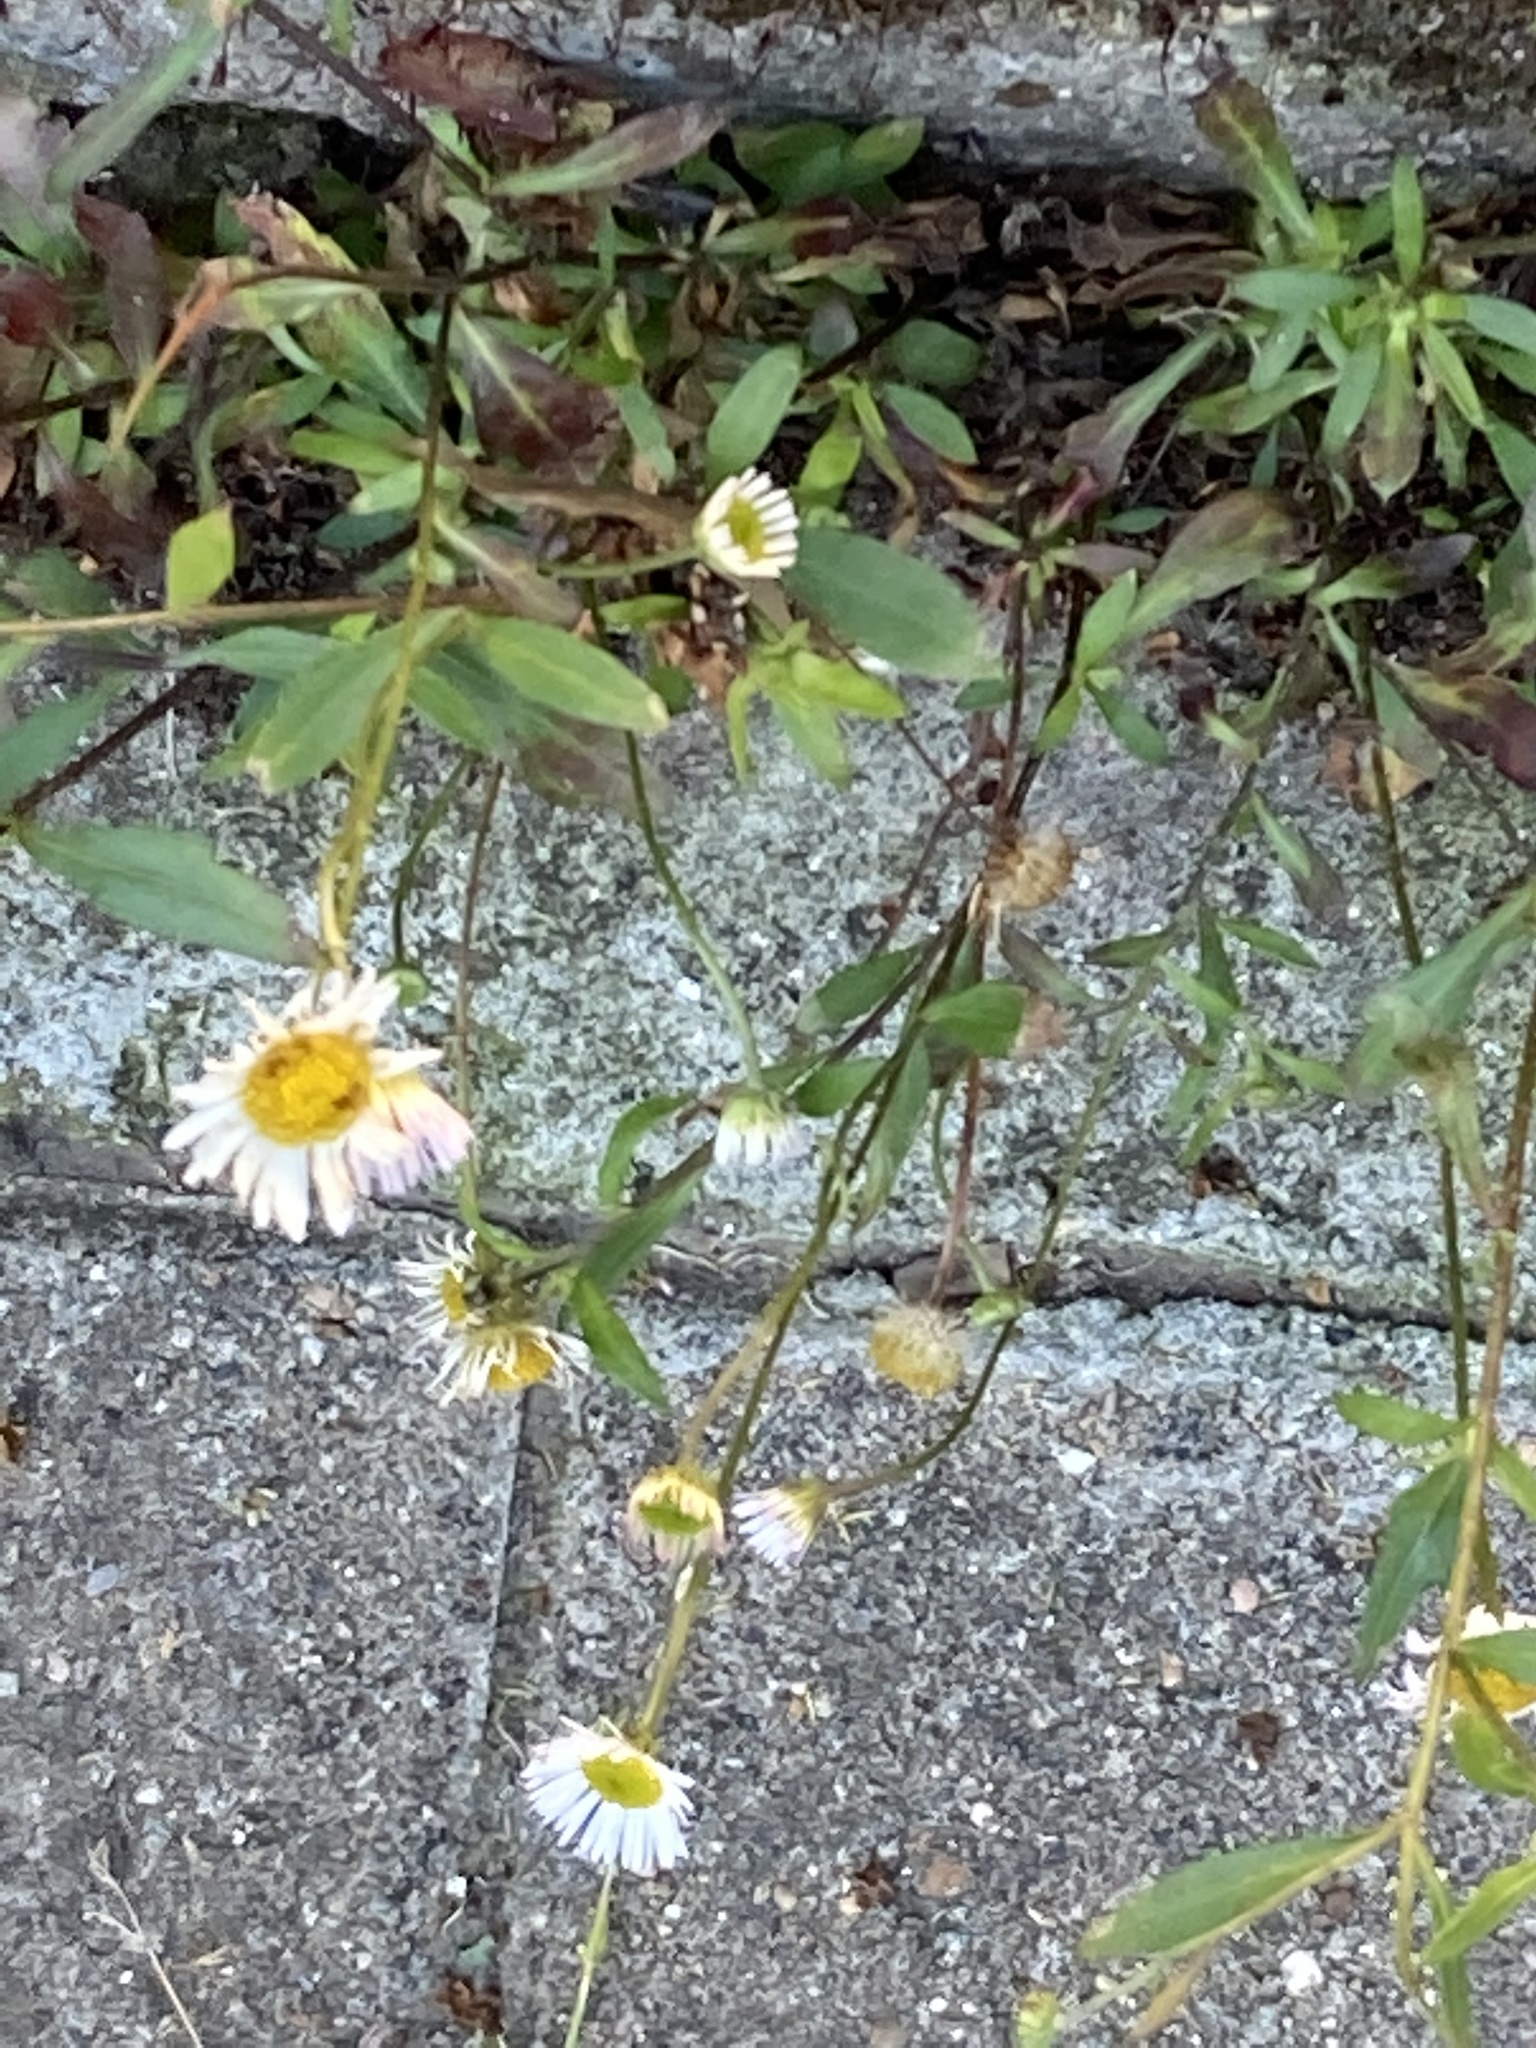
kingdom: Plantae
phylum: Tracheophyta
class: Magnoliopsida
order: Asterales
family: Asteraceae
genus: Erigeron
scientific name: Erigeron karvinskianus
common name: Mexican fleabane
